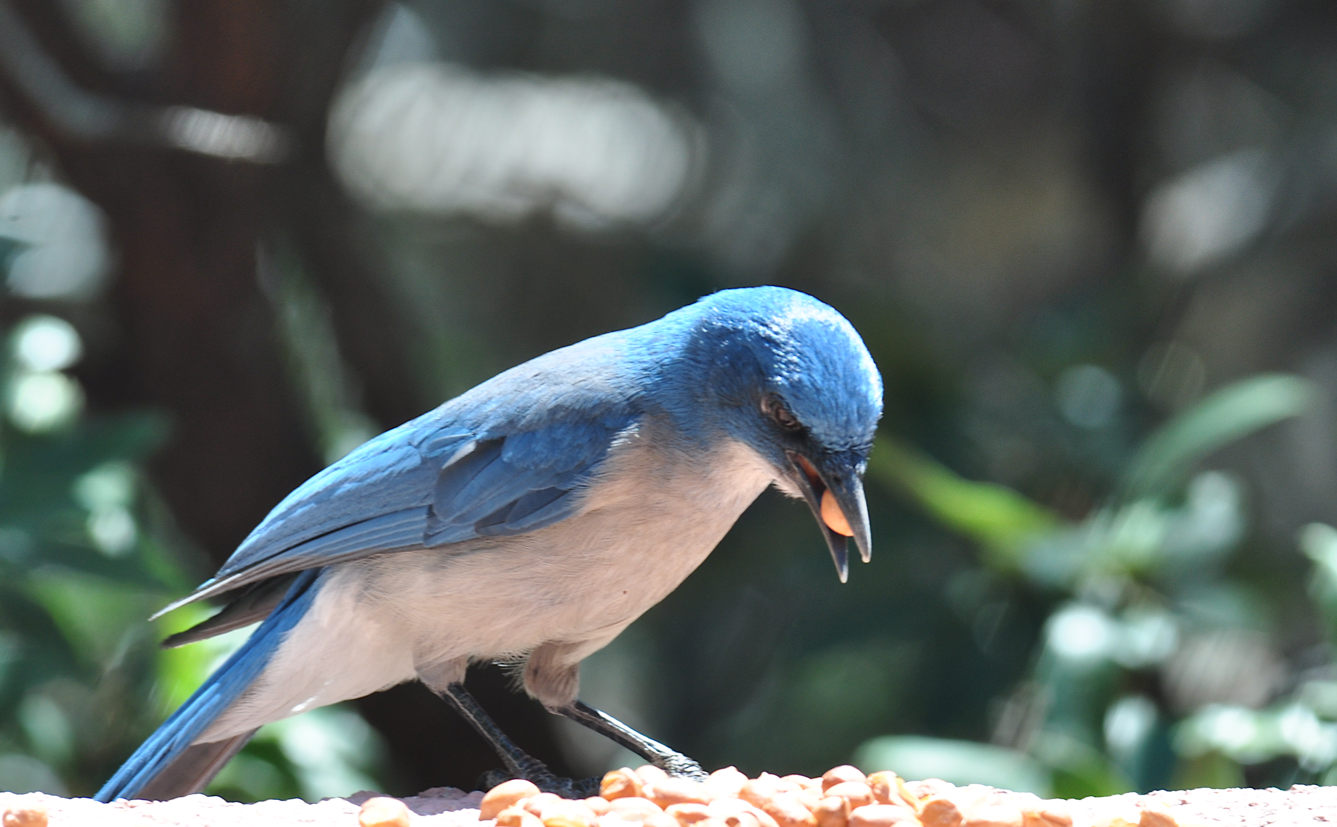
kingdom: Animalia
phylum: Chordata
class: Aves
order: Passeriformes
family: Corvidae
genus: Aphelocoma
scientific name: Aphelocoma wollweberi
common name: Mexican jay
